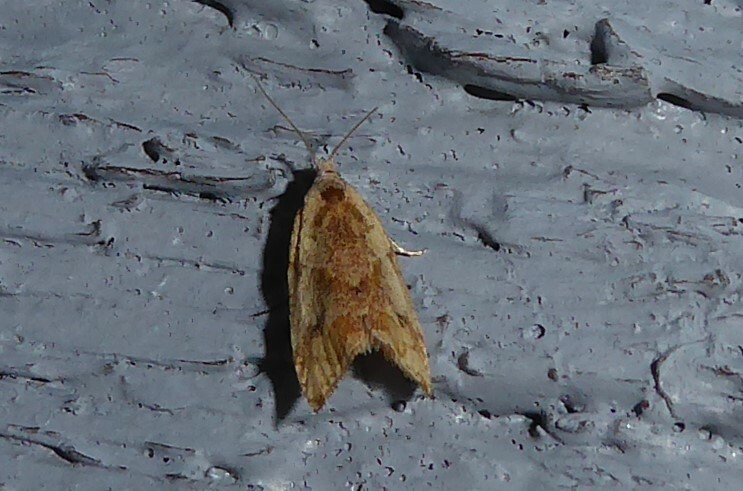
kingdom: Animalia
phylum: Arthropoda
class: Insecta
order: Lepidoptera
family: Tortricidae
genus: Pyrgotis
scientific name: Pyrgotis plagiatana
